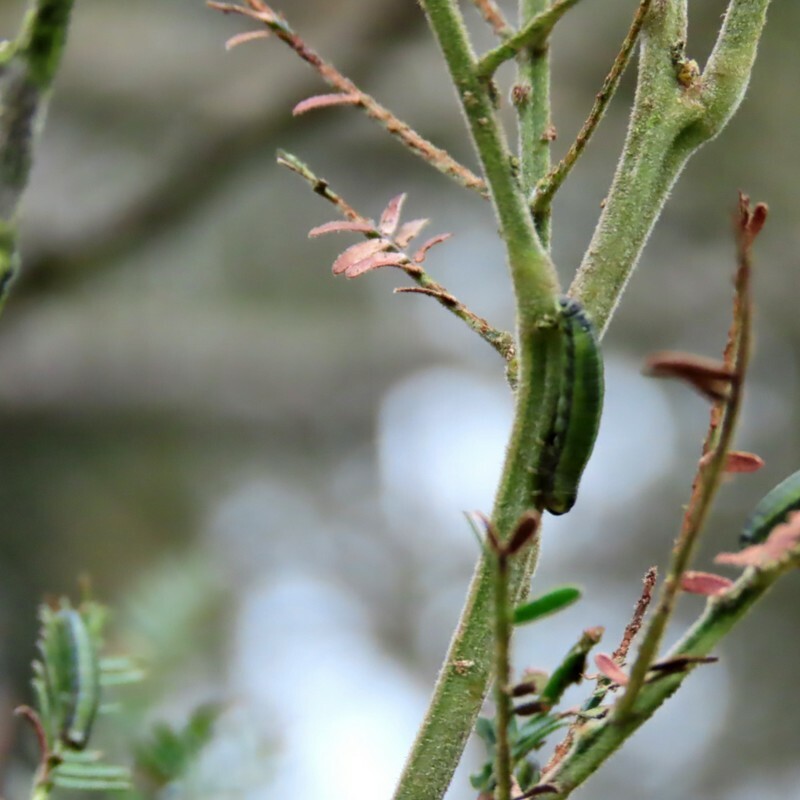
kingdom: Animalia
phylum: Arthropoda
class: Insecta
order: Coleoptera
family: Chrysomelidae
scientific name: Chrysomelidae
